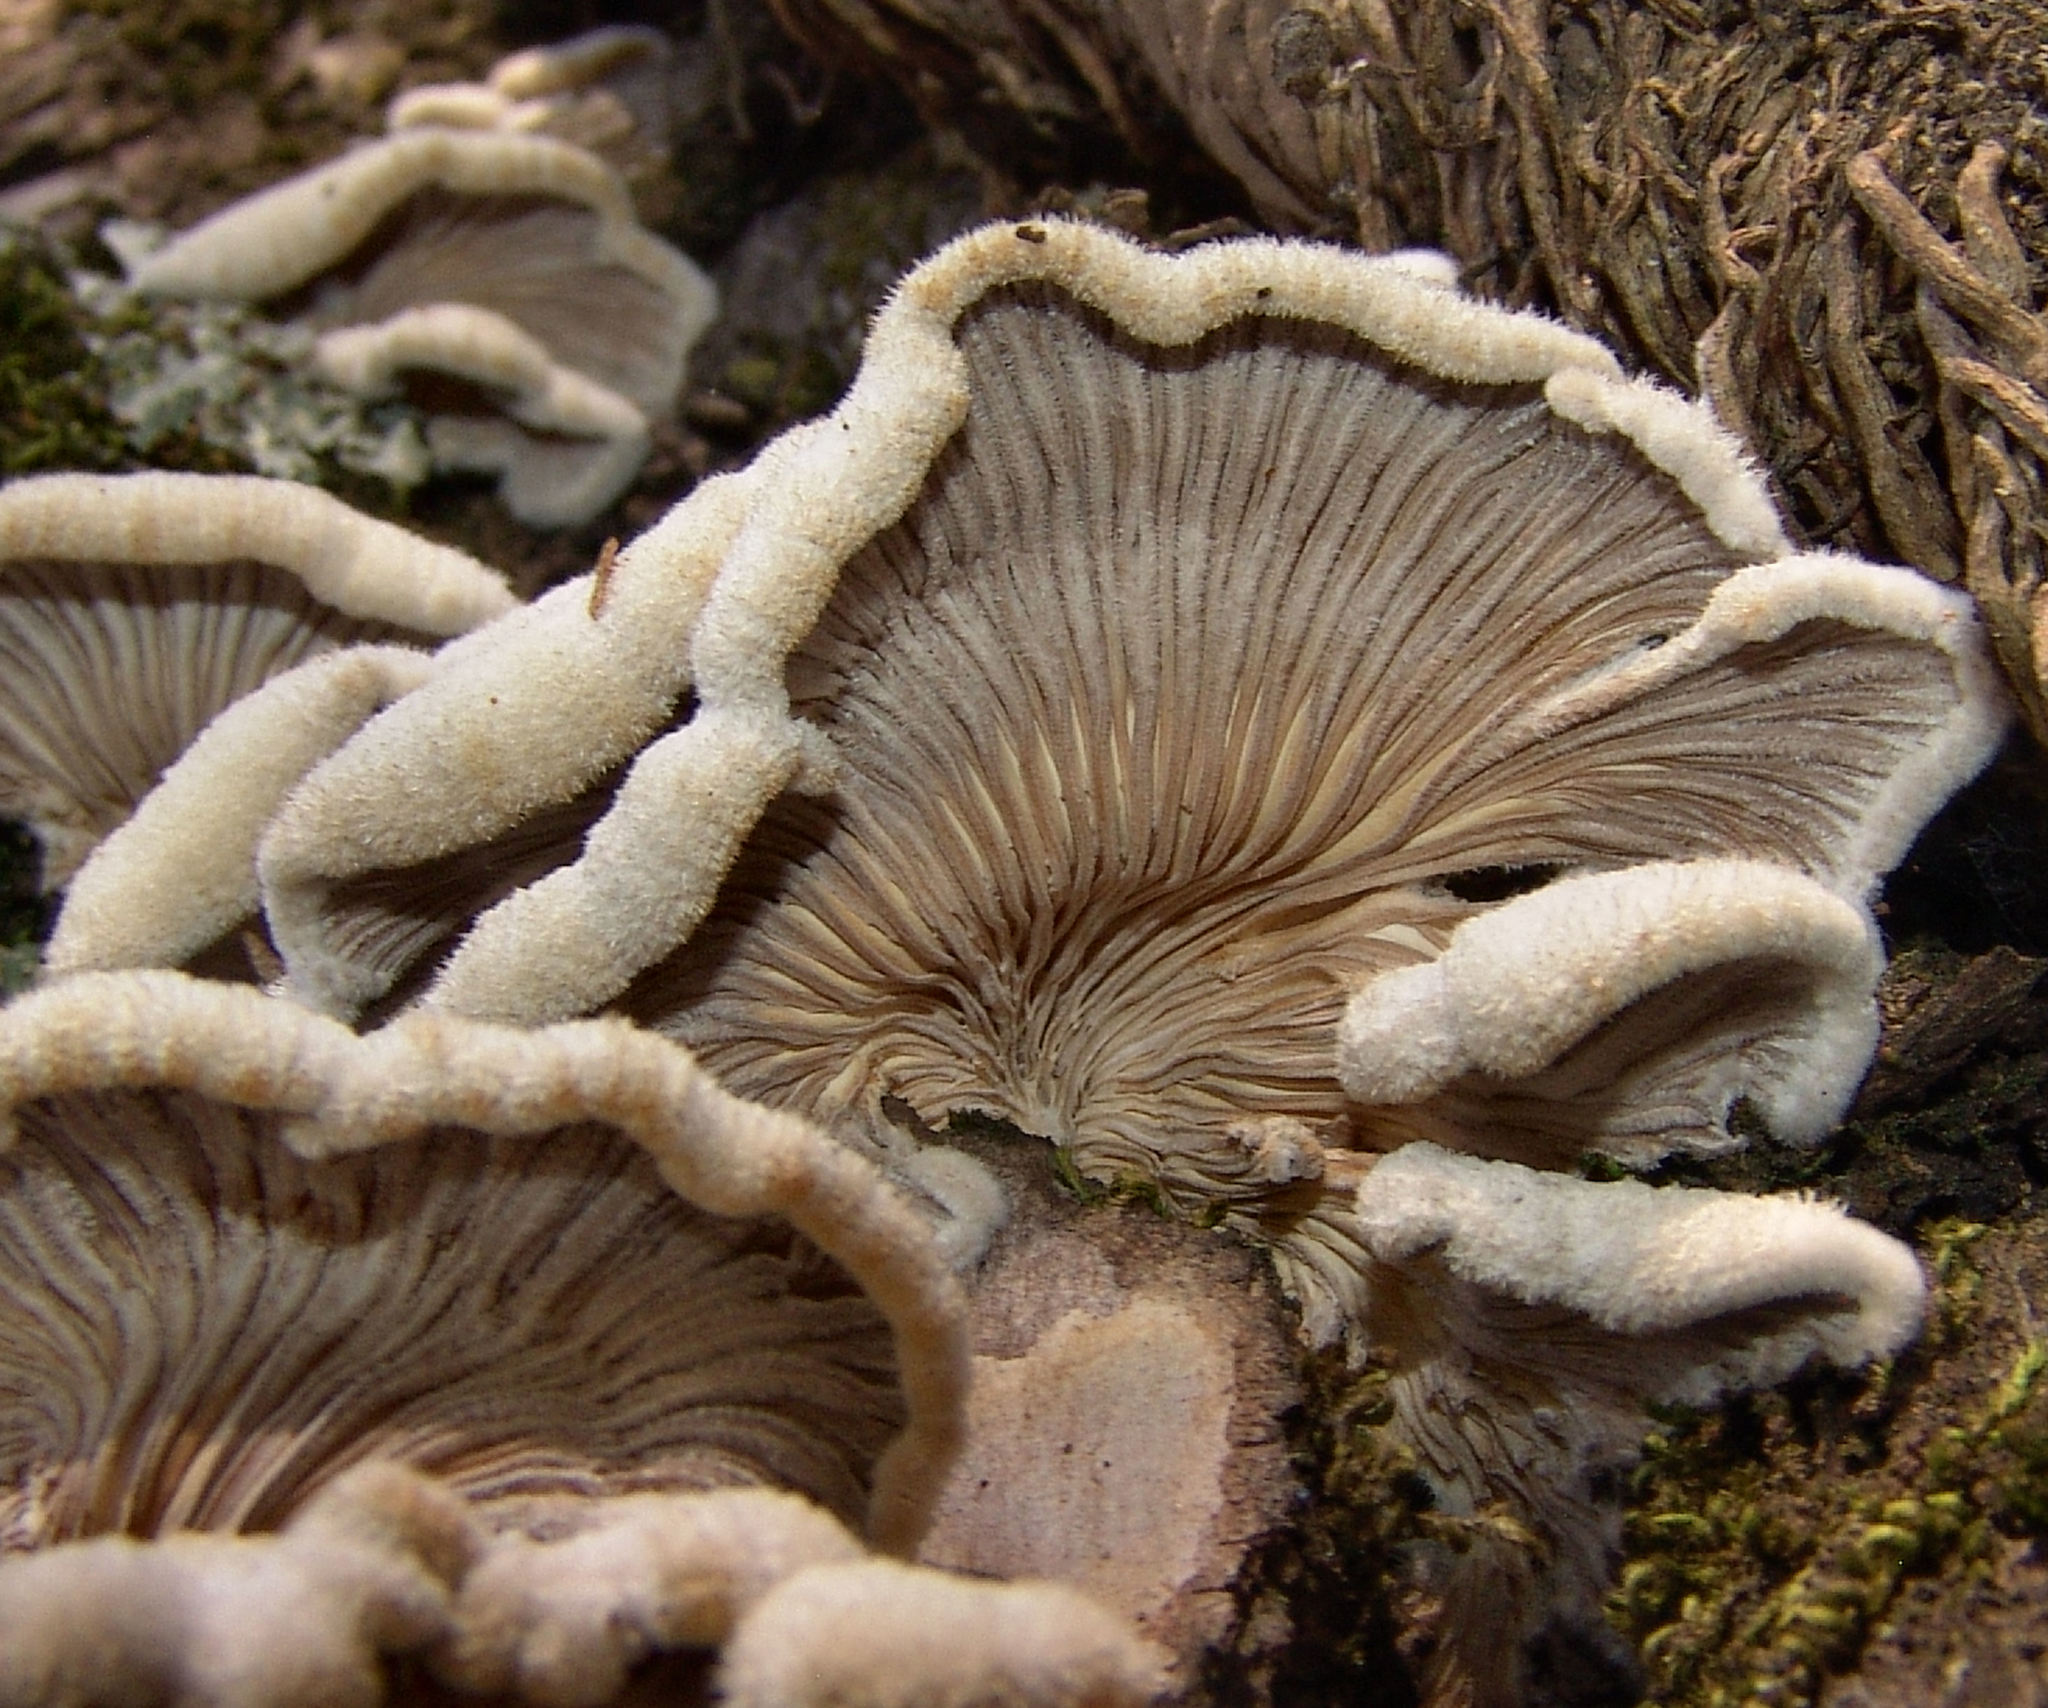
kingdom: Fungi
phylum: Basidiomycota
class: Agaricomycetes
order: Agaricales
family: Schizophyllaceae
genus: Schizophyllum
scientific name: Schizophyllum commune
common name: Common porecrust
